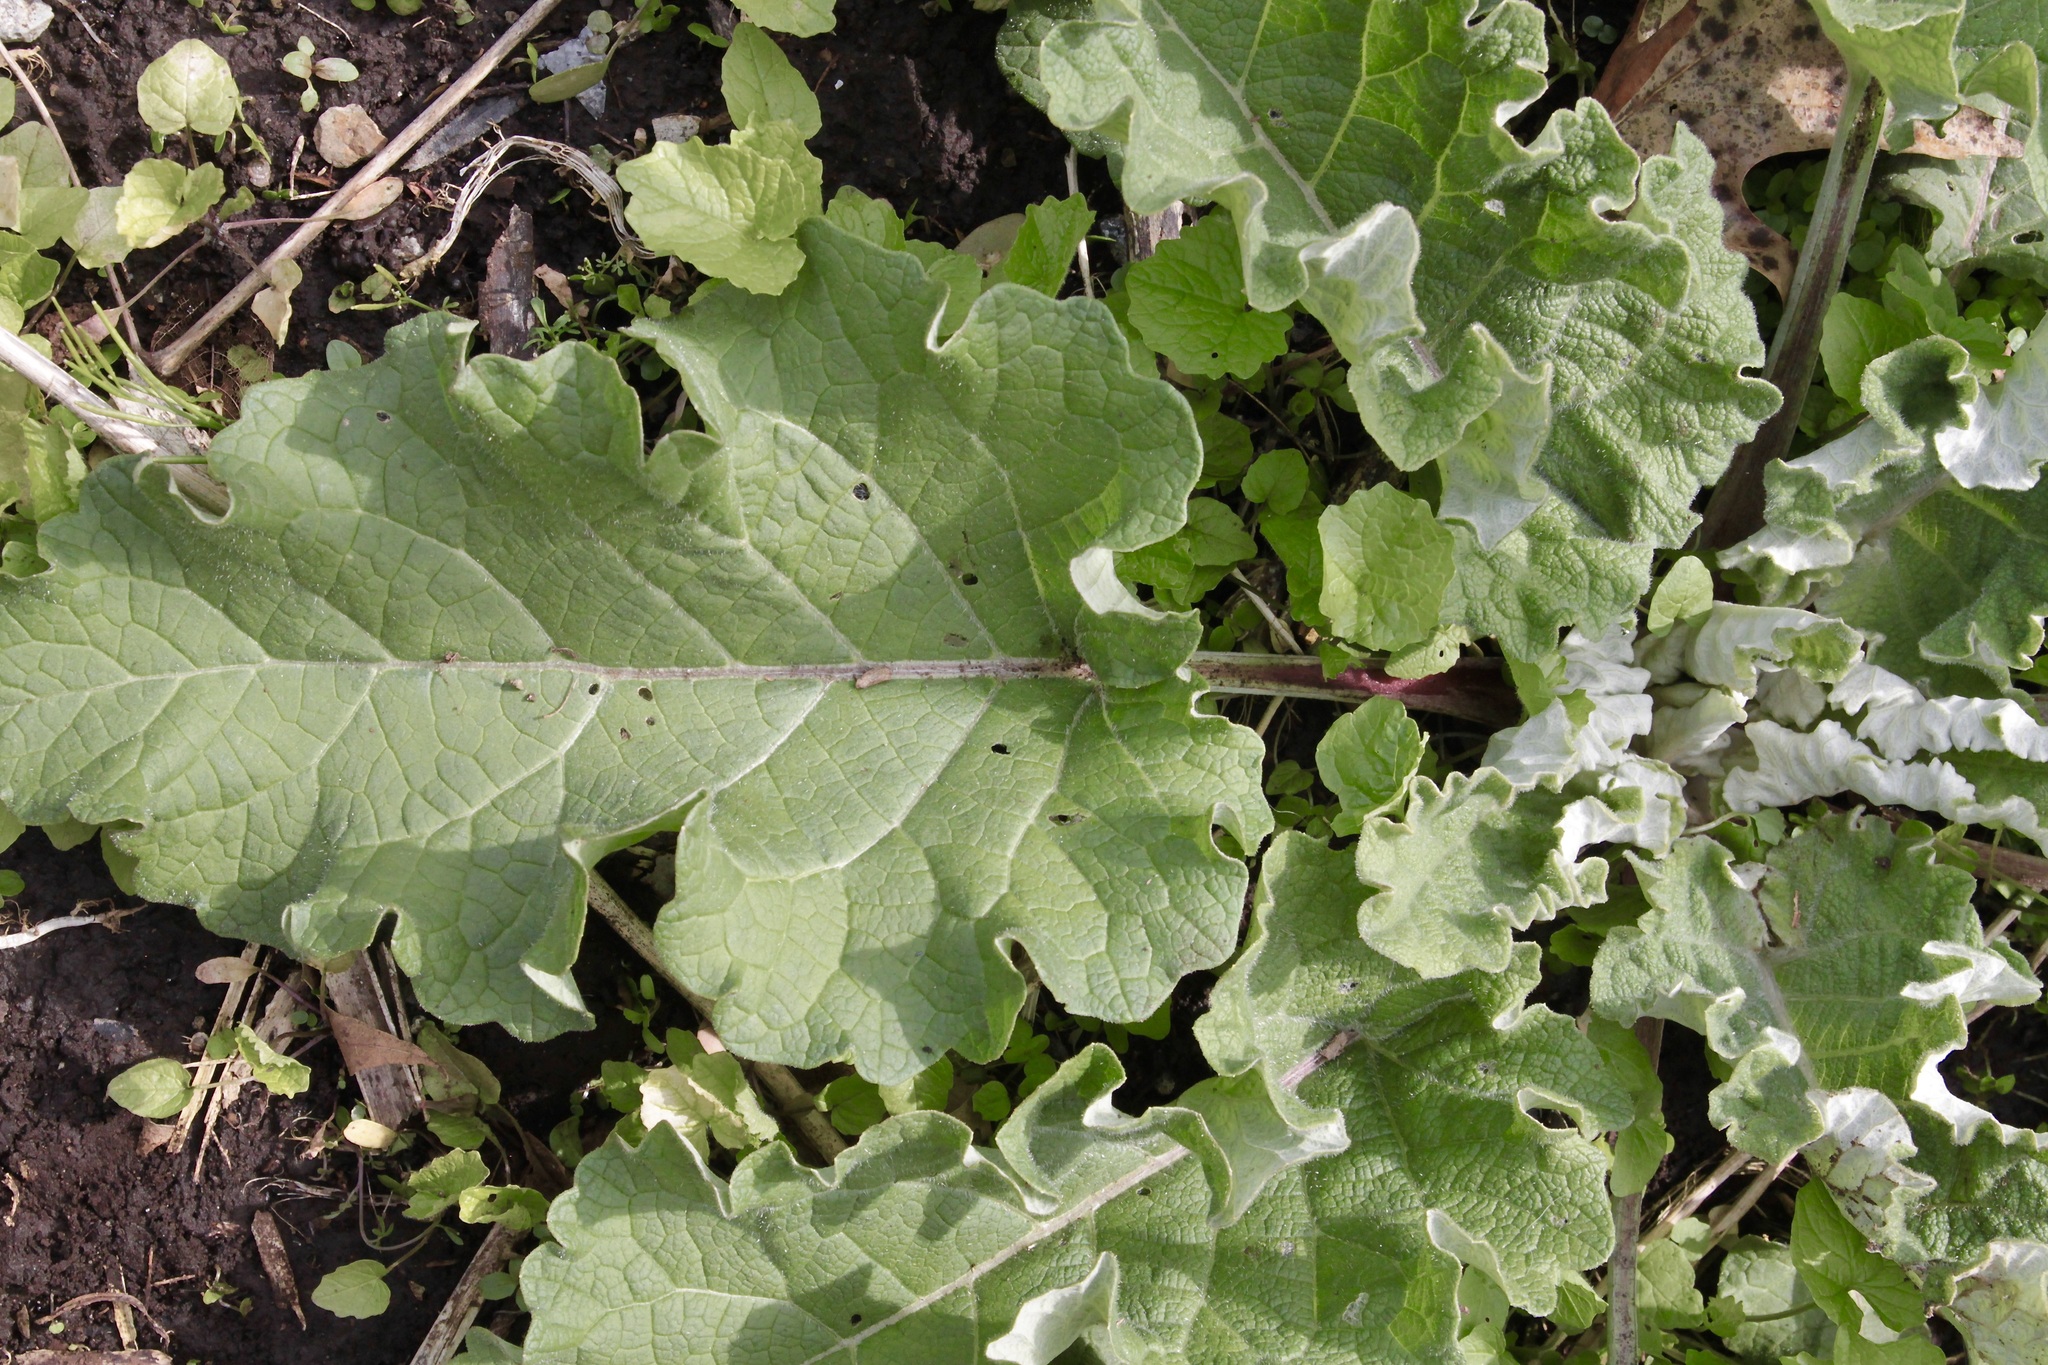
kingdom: Plantae
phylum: Tracheophyta
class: Magnoliopsida
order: Asterales
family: Asteraceae
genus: Arctium
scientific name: Arctium
